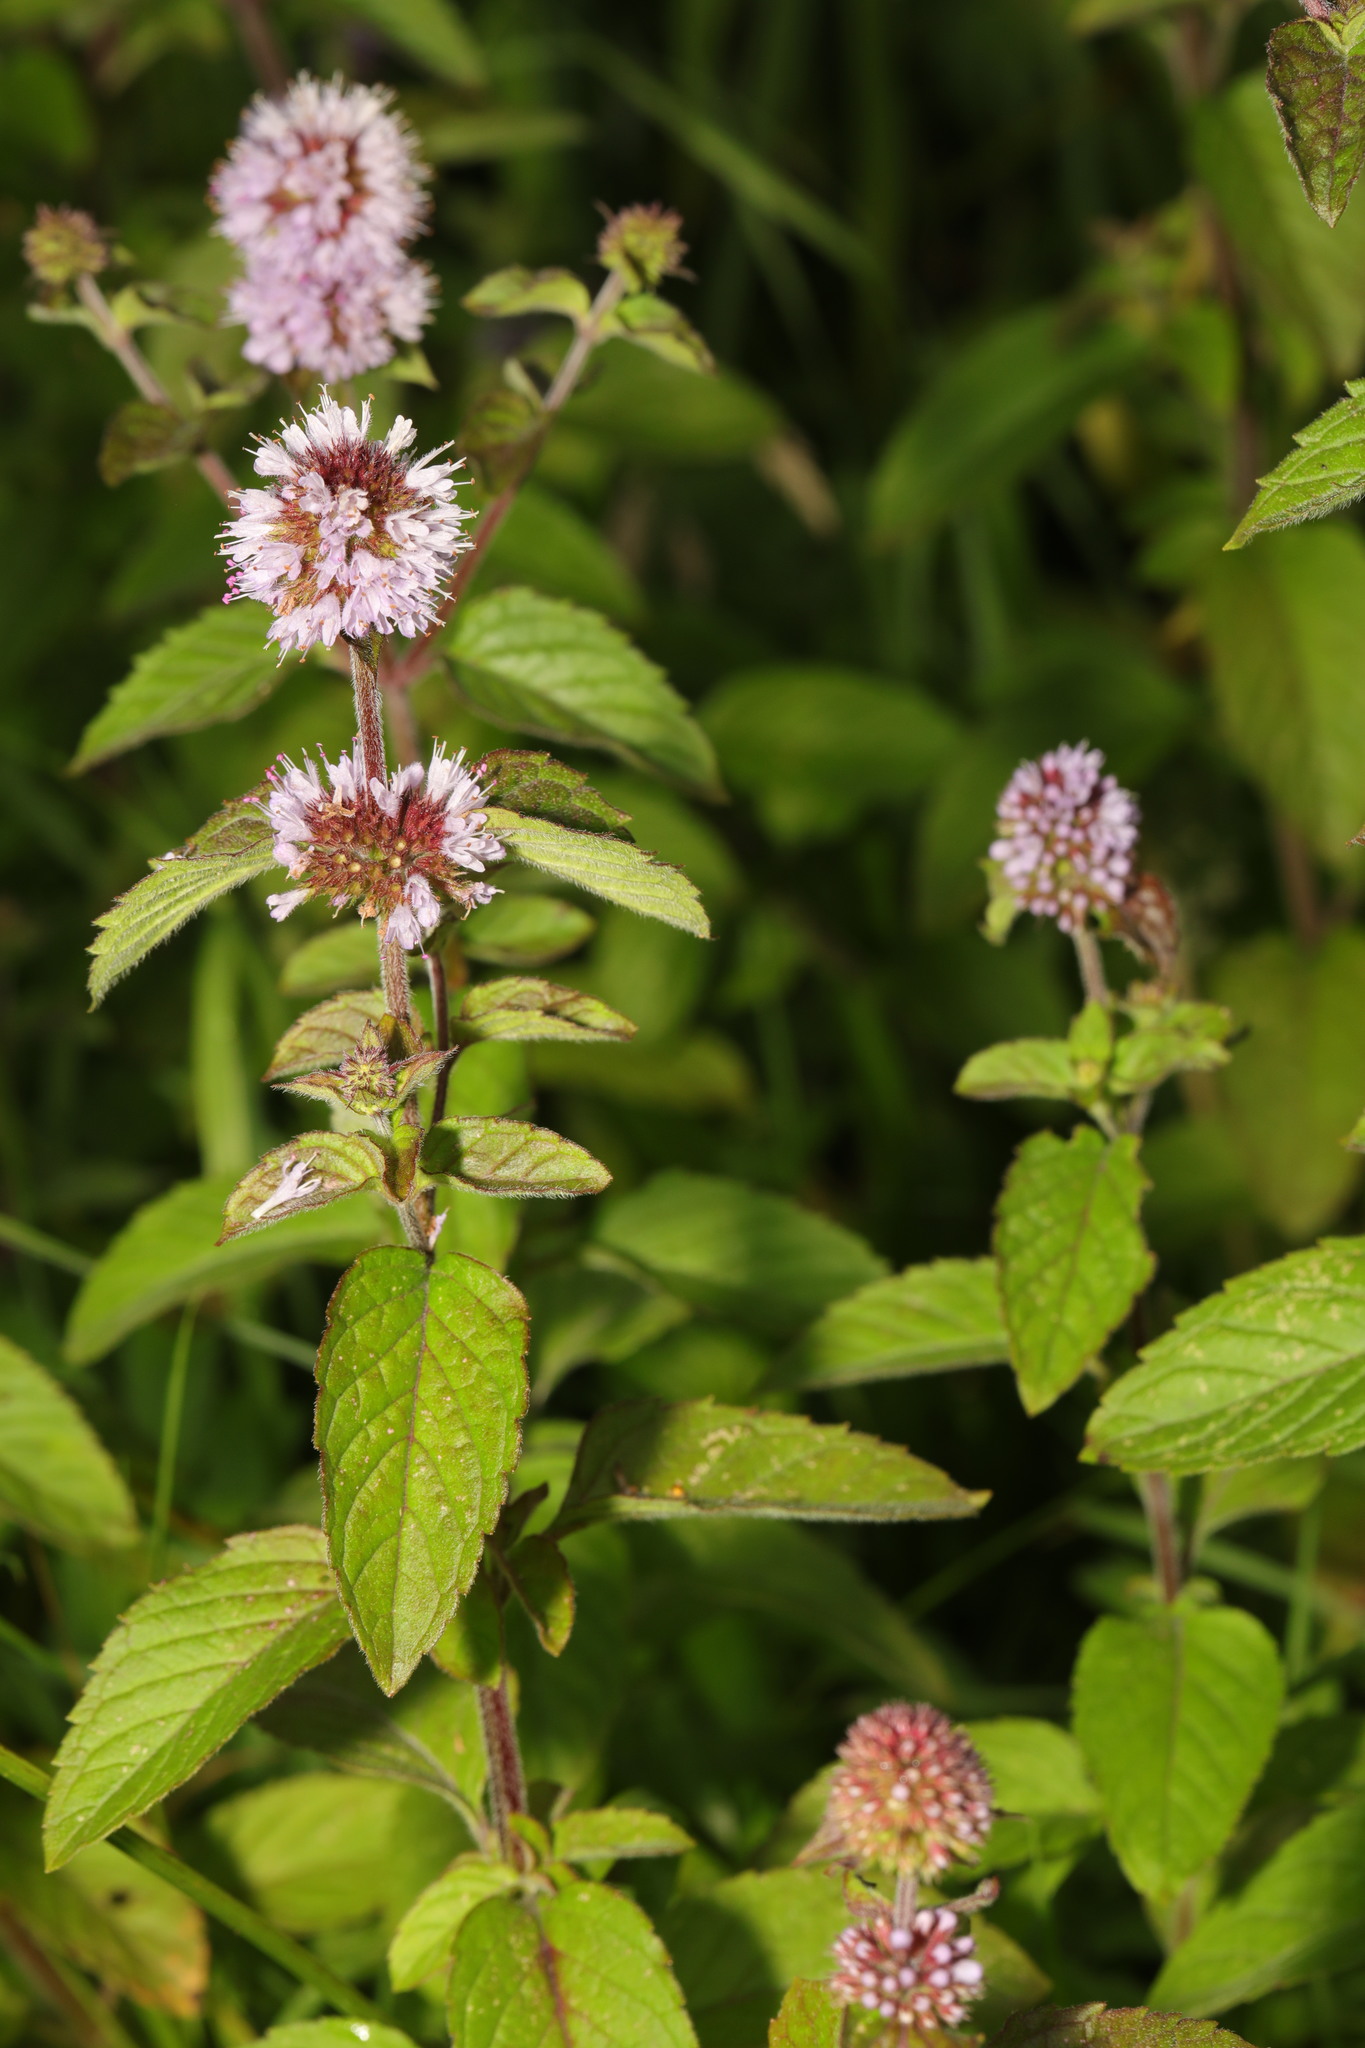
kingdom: Plantae
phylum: Tracheophyta
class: Magnoliopsida
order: Lamiales
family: Lamiaceae
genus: Mentha
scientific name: Mentha aquatica
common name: Water mint
